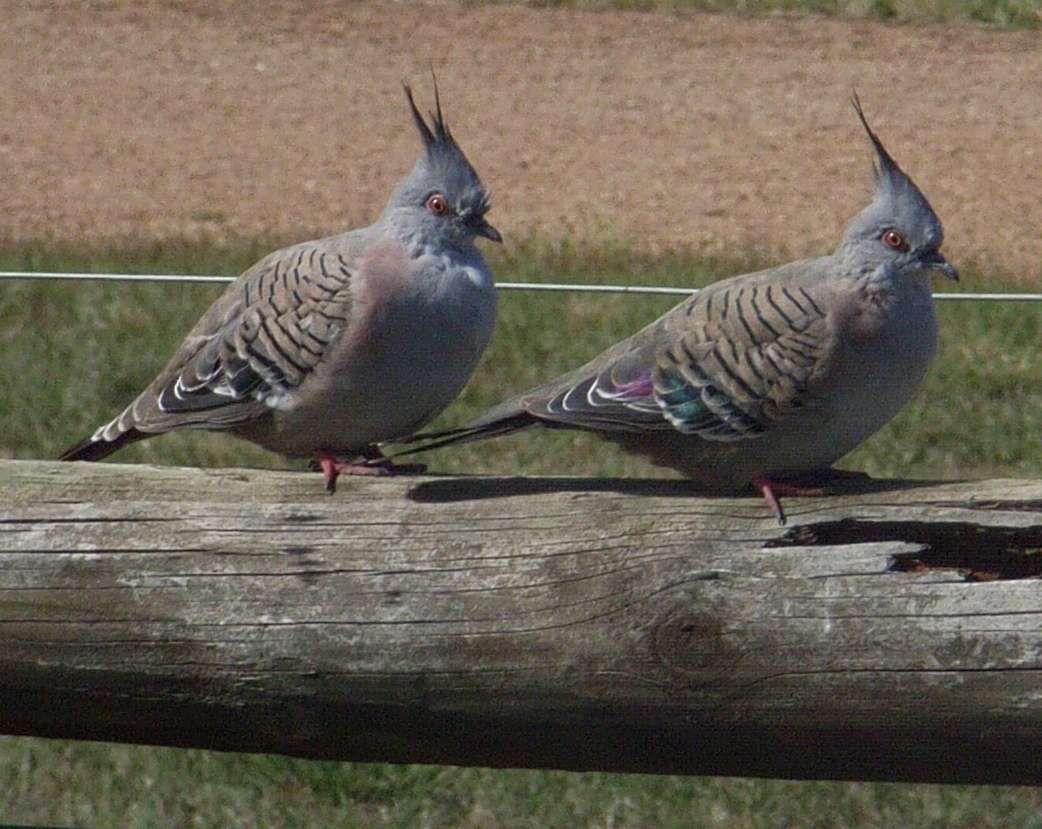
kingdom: Animalia
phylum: Chordata
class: Aves
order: Columbiformes
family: Columbidae
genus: Ocyphaps
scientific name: Ocyphaps lophotes
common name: Crested pigeon
